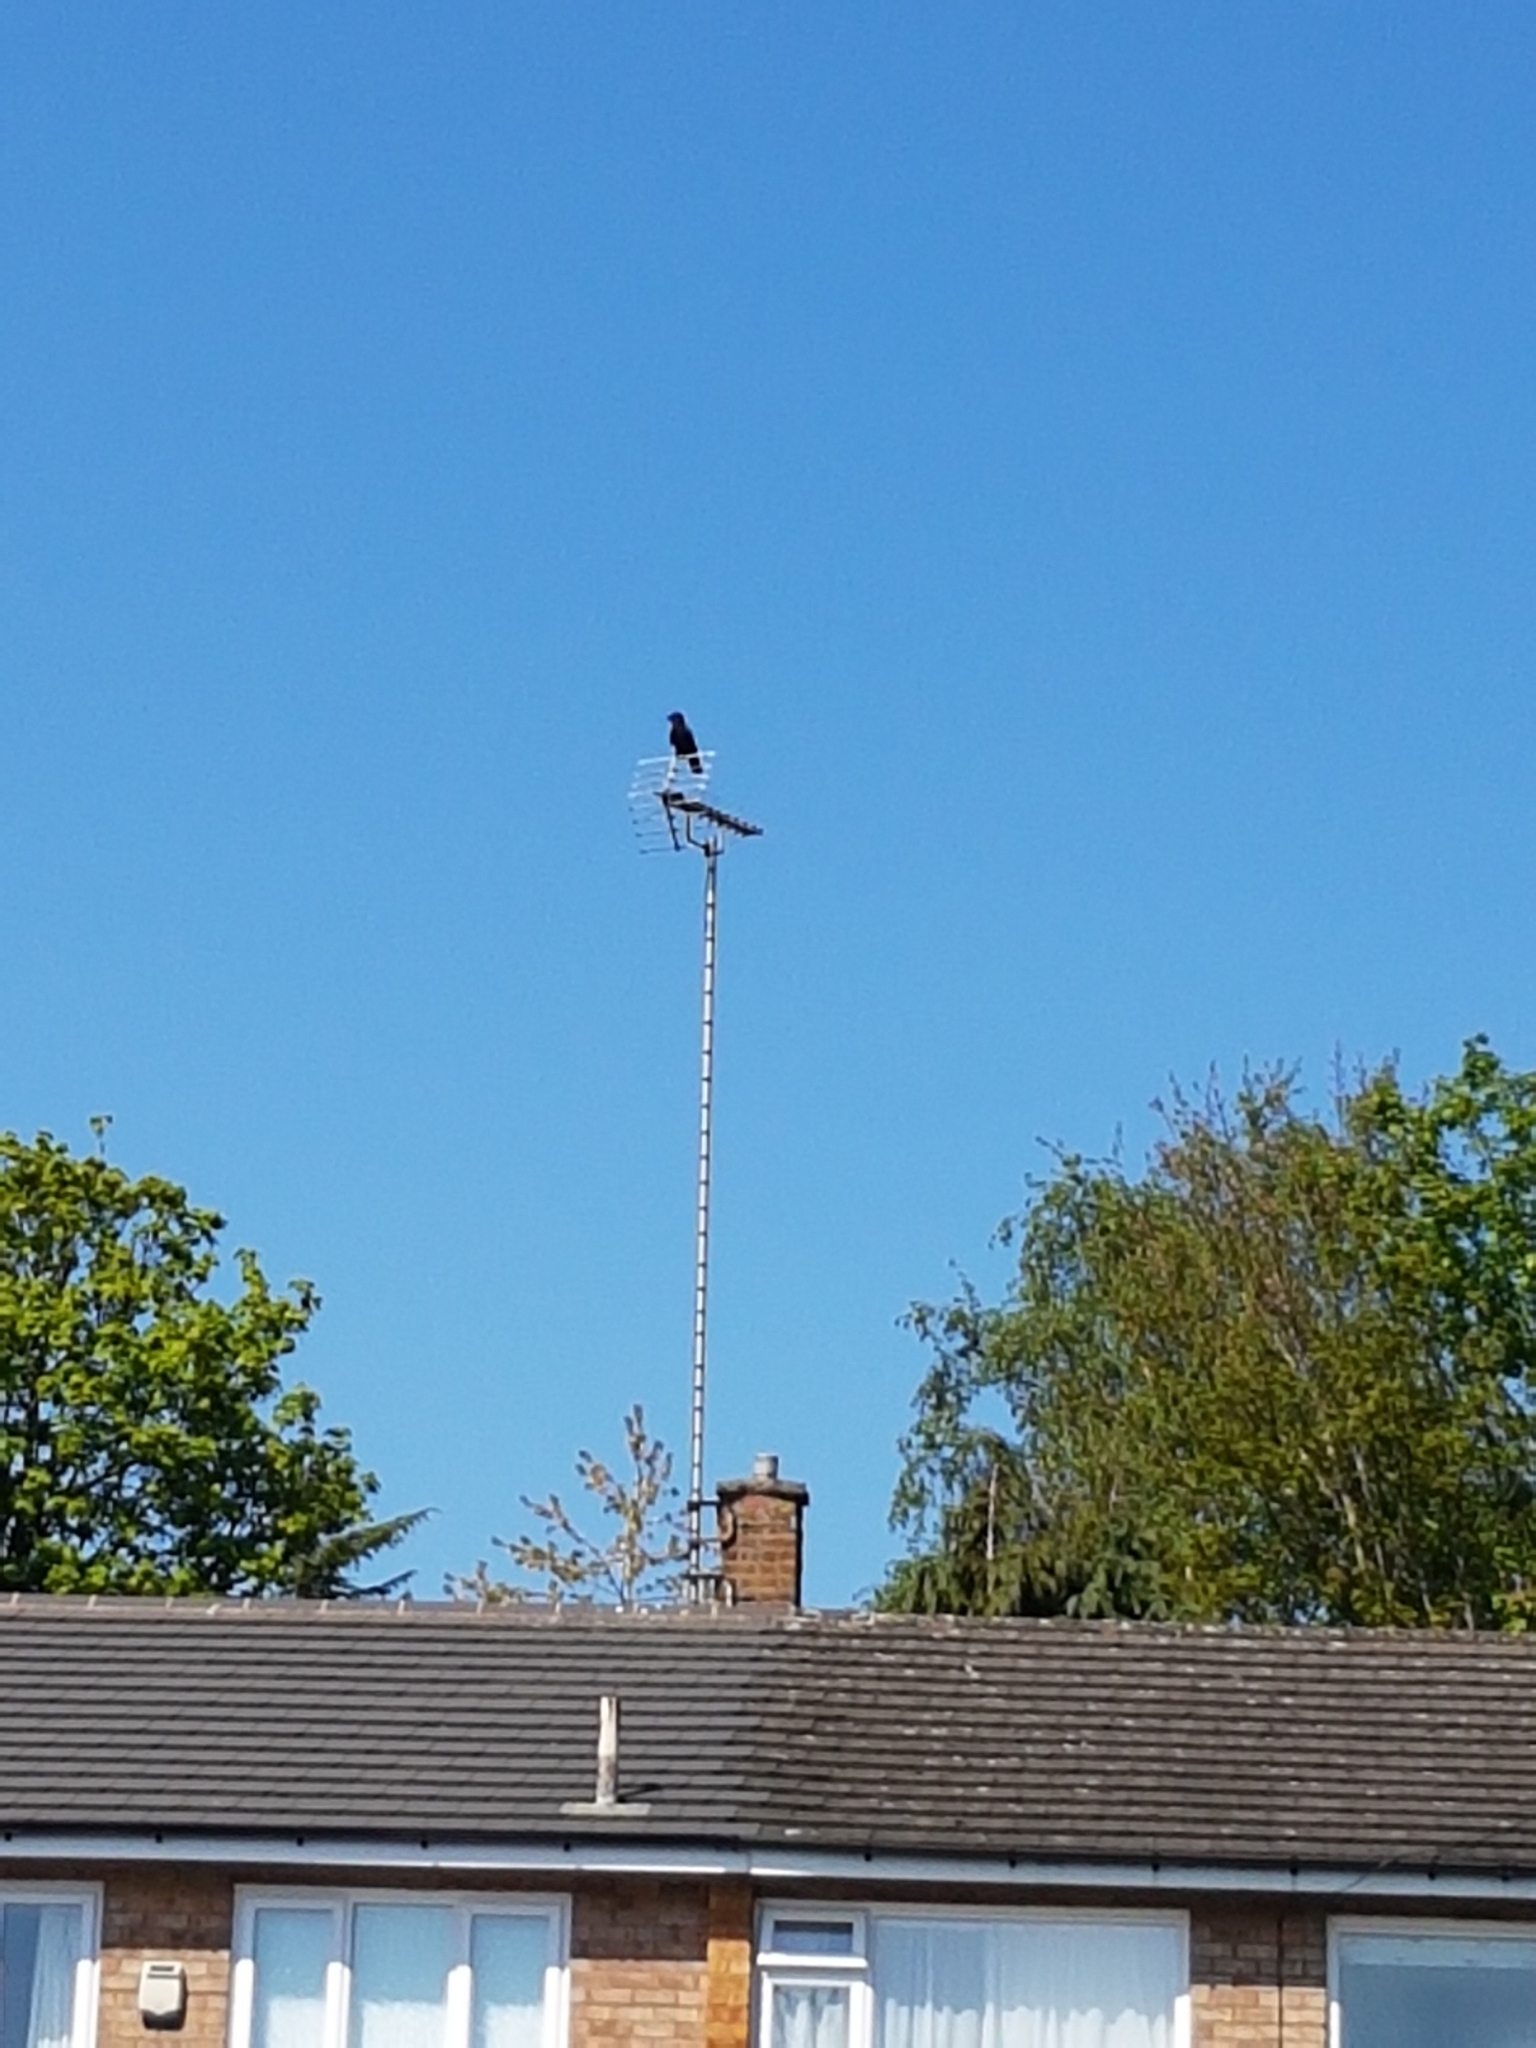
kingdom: Animalia
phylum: Chordata
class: Aves
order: Passeriformes
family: Corvidae
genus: Corvus
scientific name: Corvus corone
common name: Carrion crow
